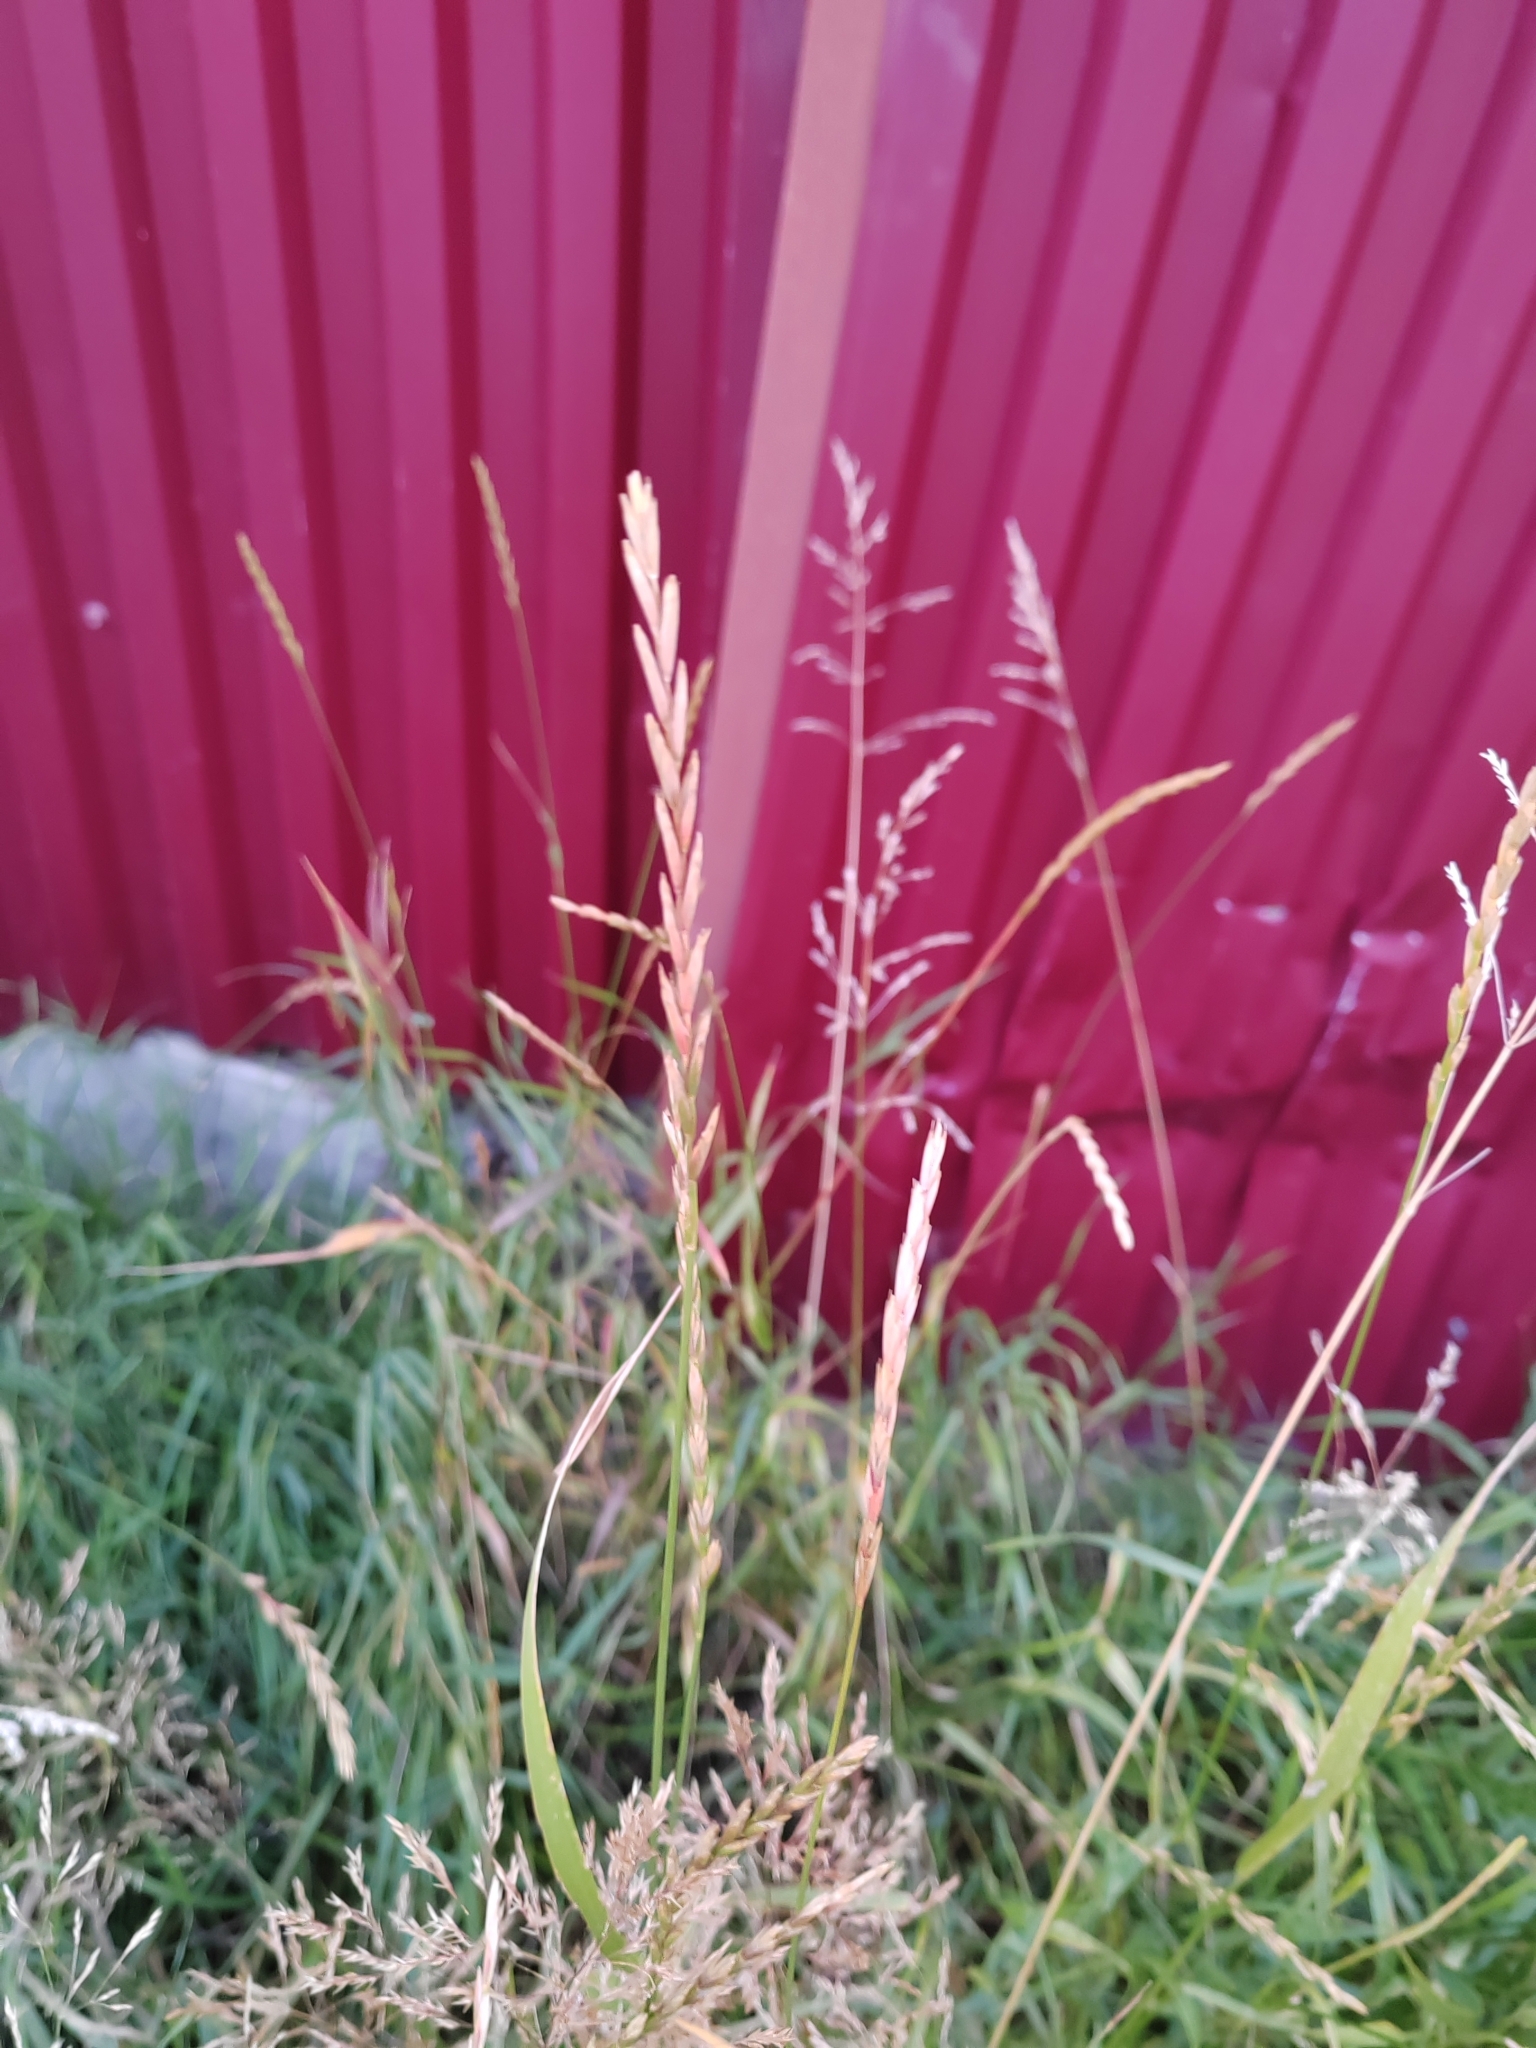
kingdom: Plantae
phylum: Tracheophyta
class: Liliopsida
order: Poales
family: Poaceae
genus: Elymus
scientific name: Elymus repens
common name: Quackgrass
